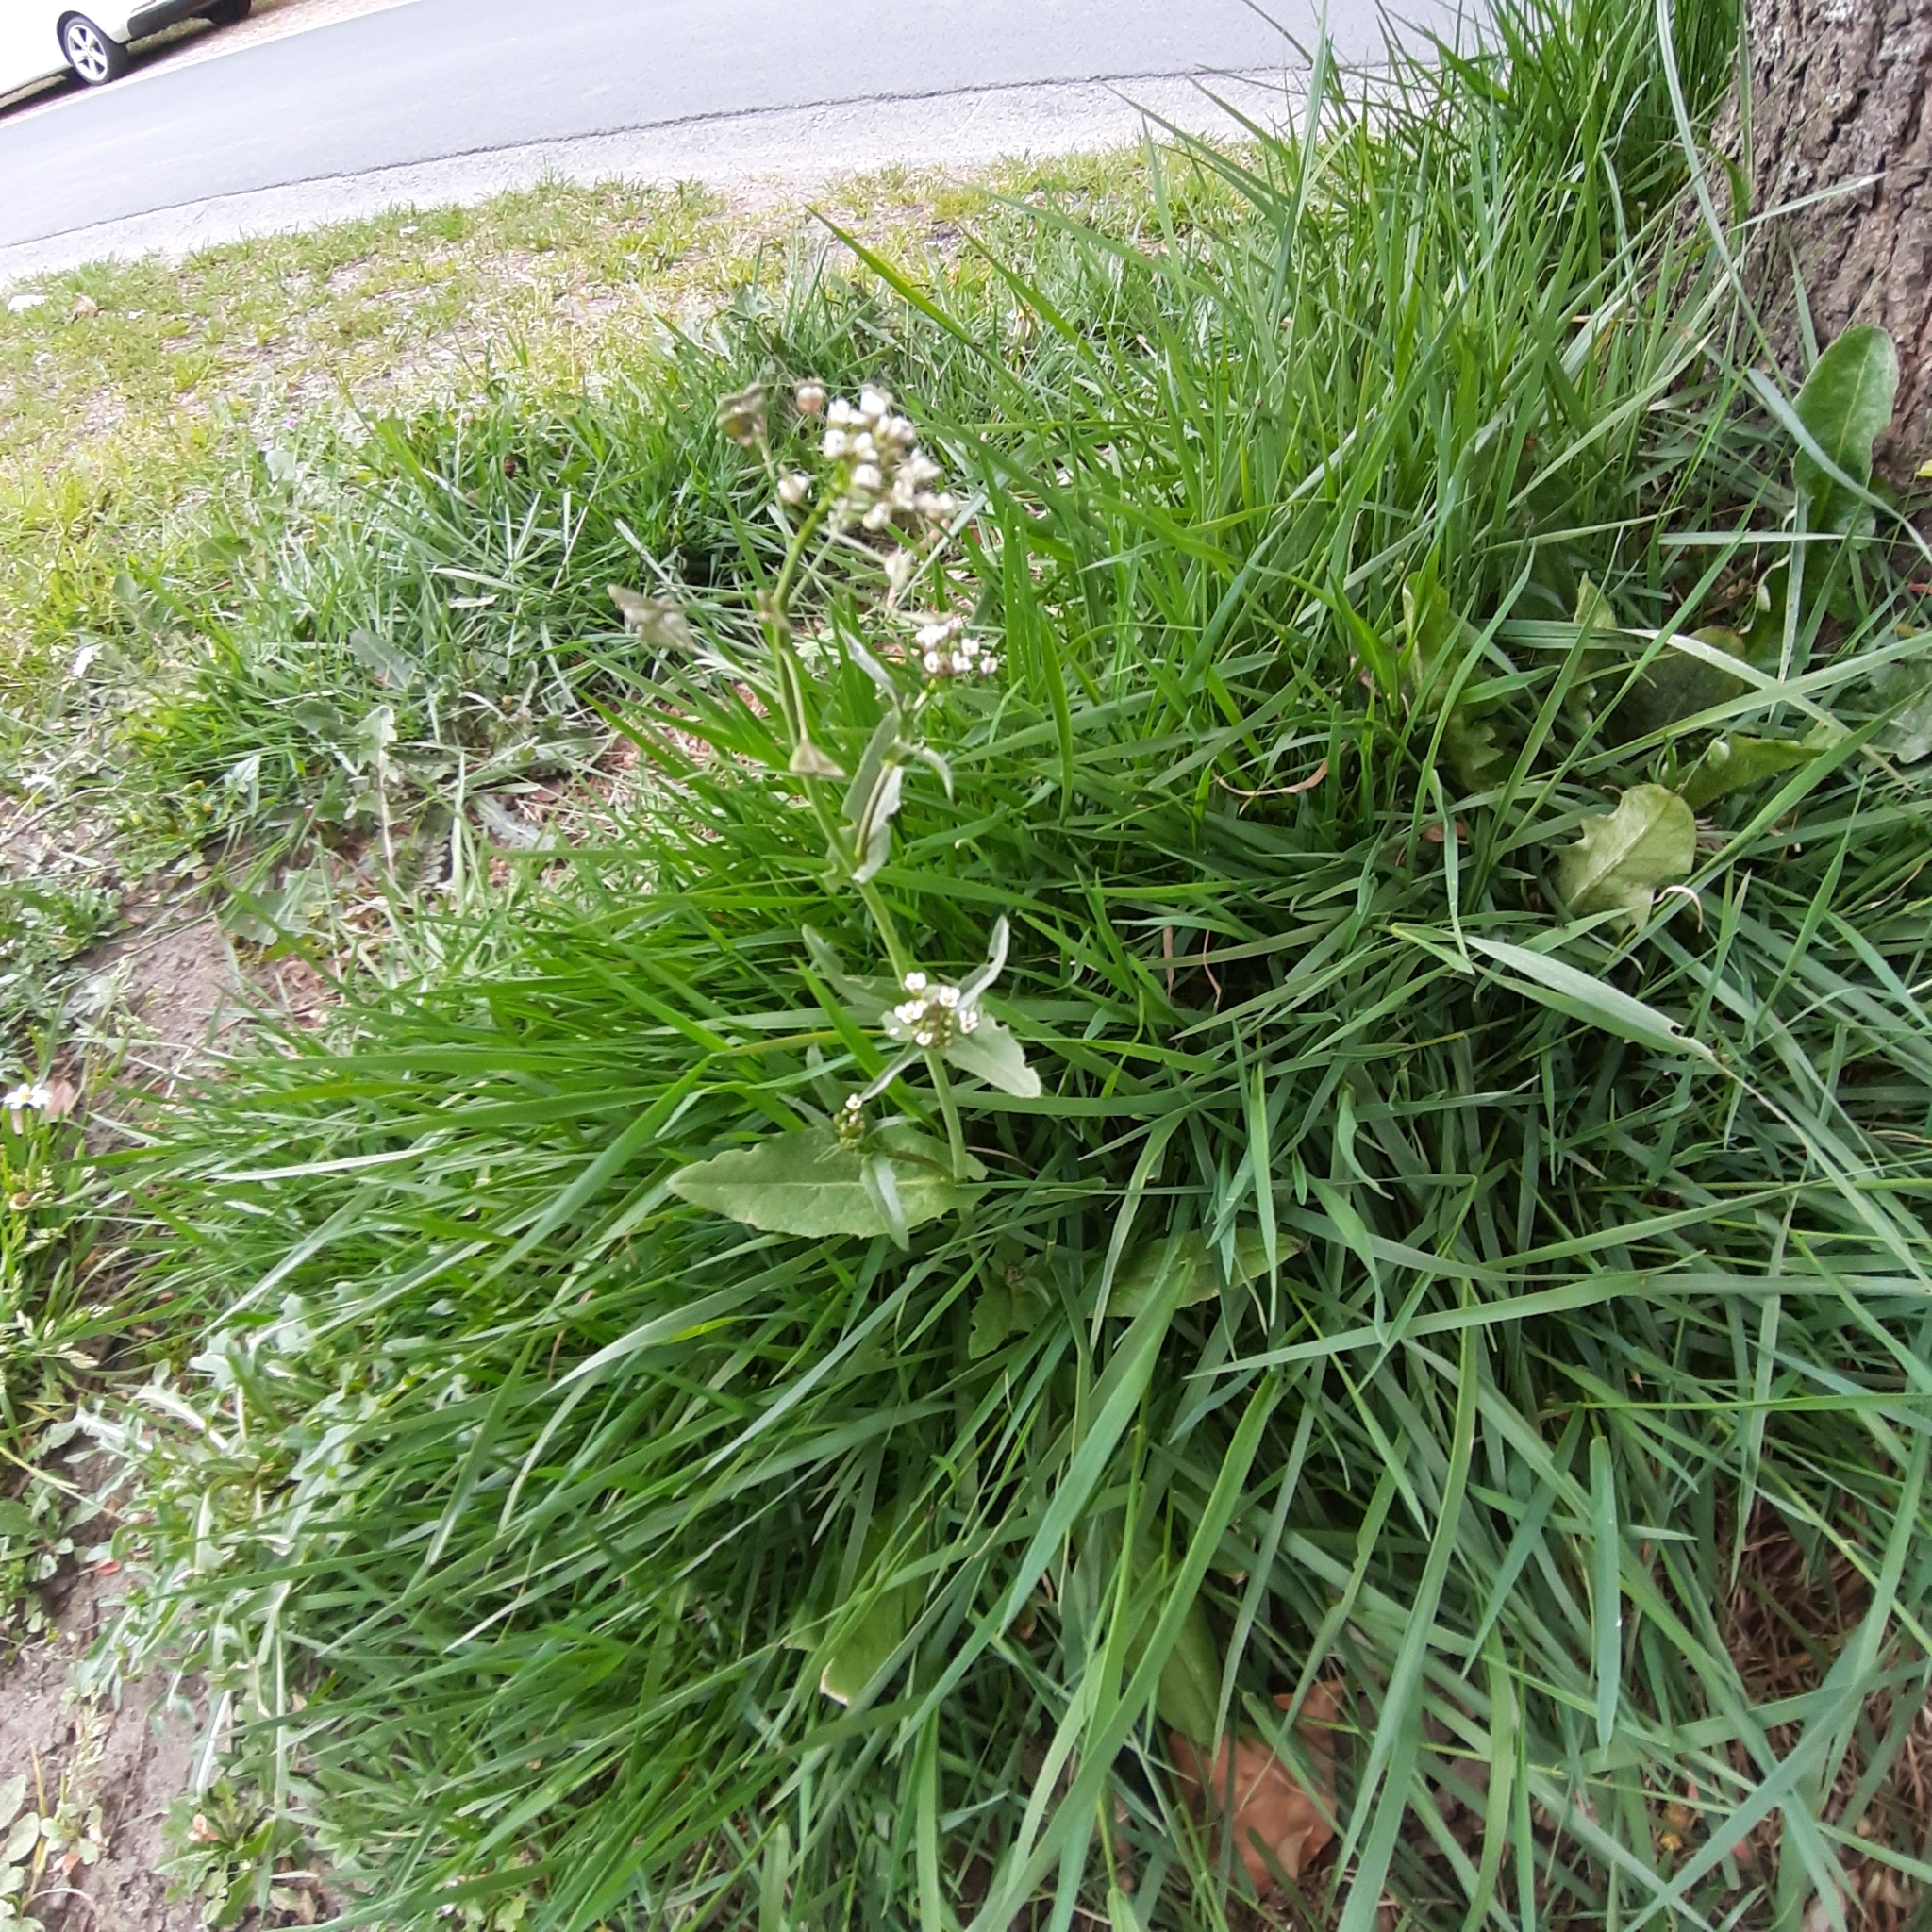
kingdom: Plantae
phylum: Tracheophyta
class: Magnoliopsida
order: Brassicales
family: Brassicaceae
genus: Capsella
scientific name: Capsella bursa-pastoris
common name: Shepherd's purse
